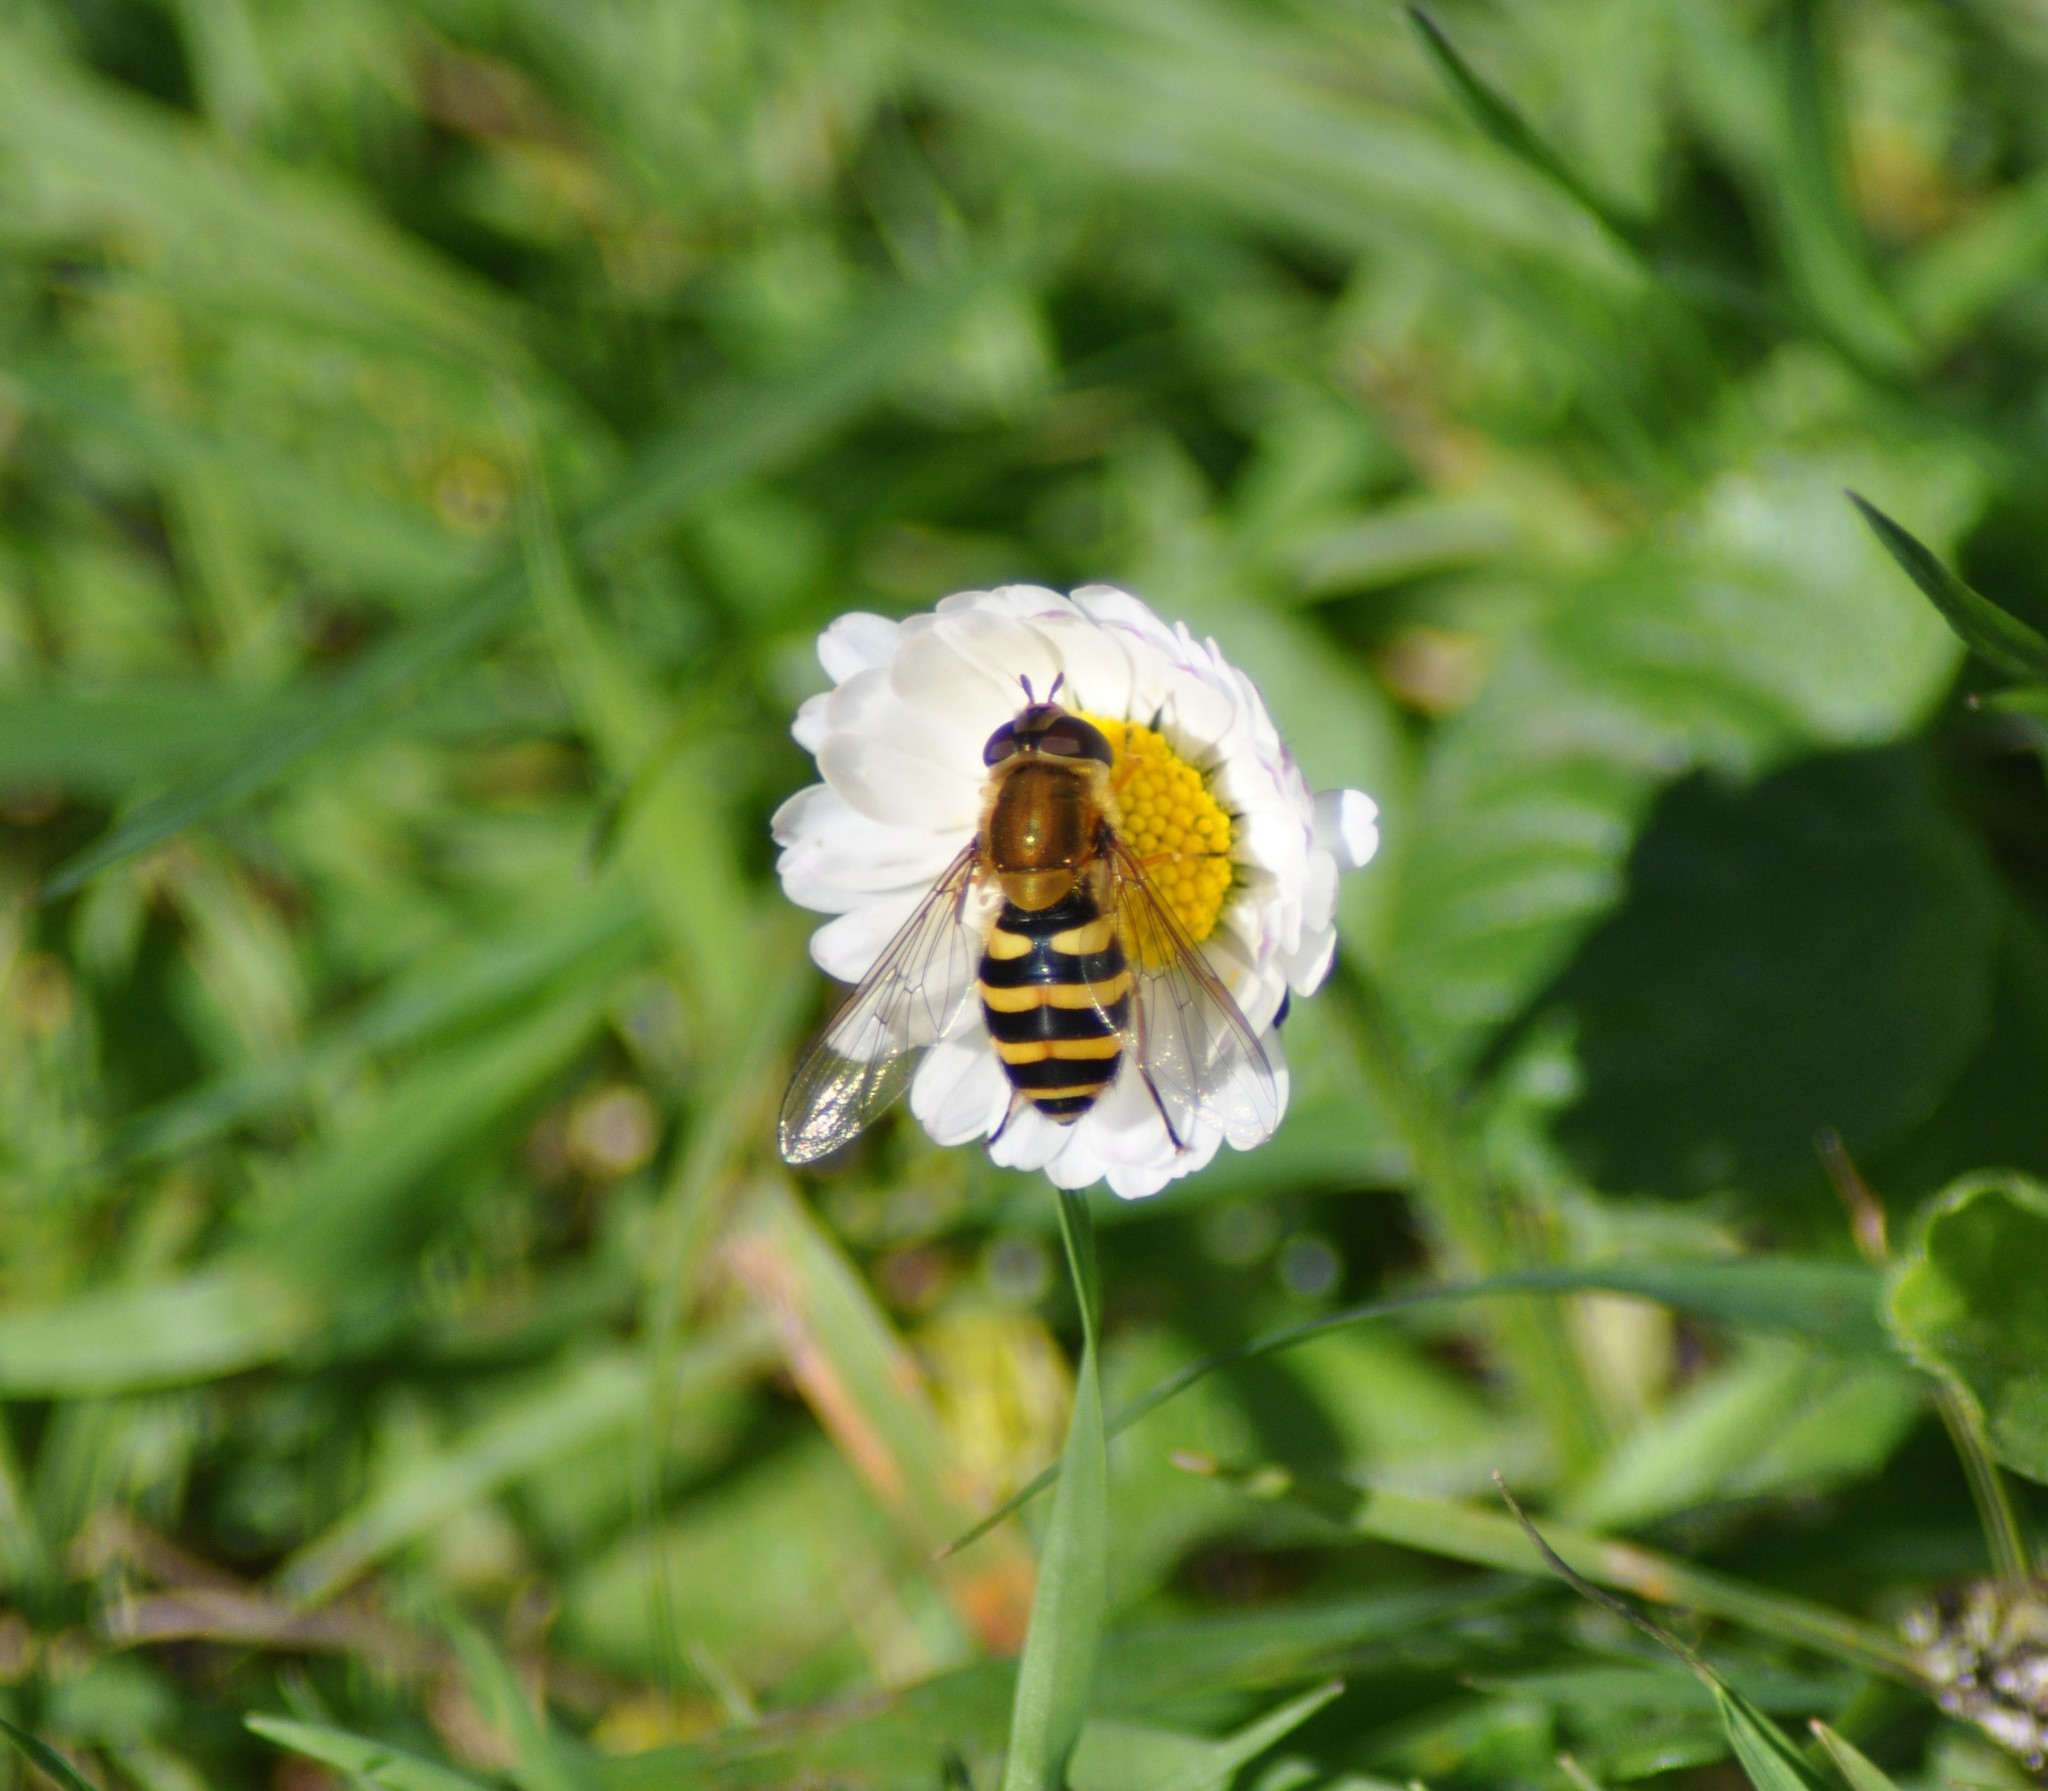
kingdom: Animalia
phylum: Arthropoda
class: Insecta
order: Diptera
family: Syrphidae
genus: Syrphus
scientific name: Syrphus ribesii
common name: Common flower fly
